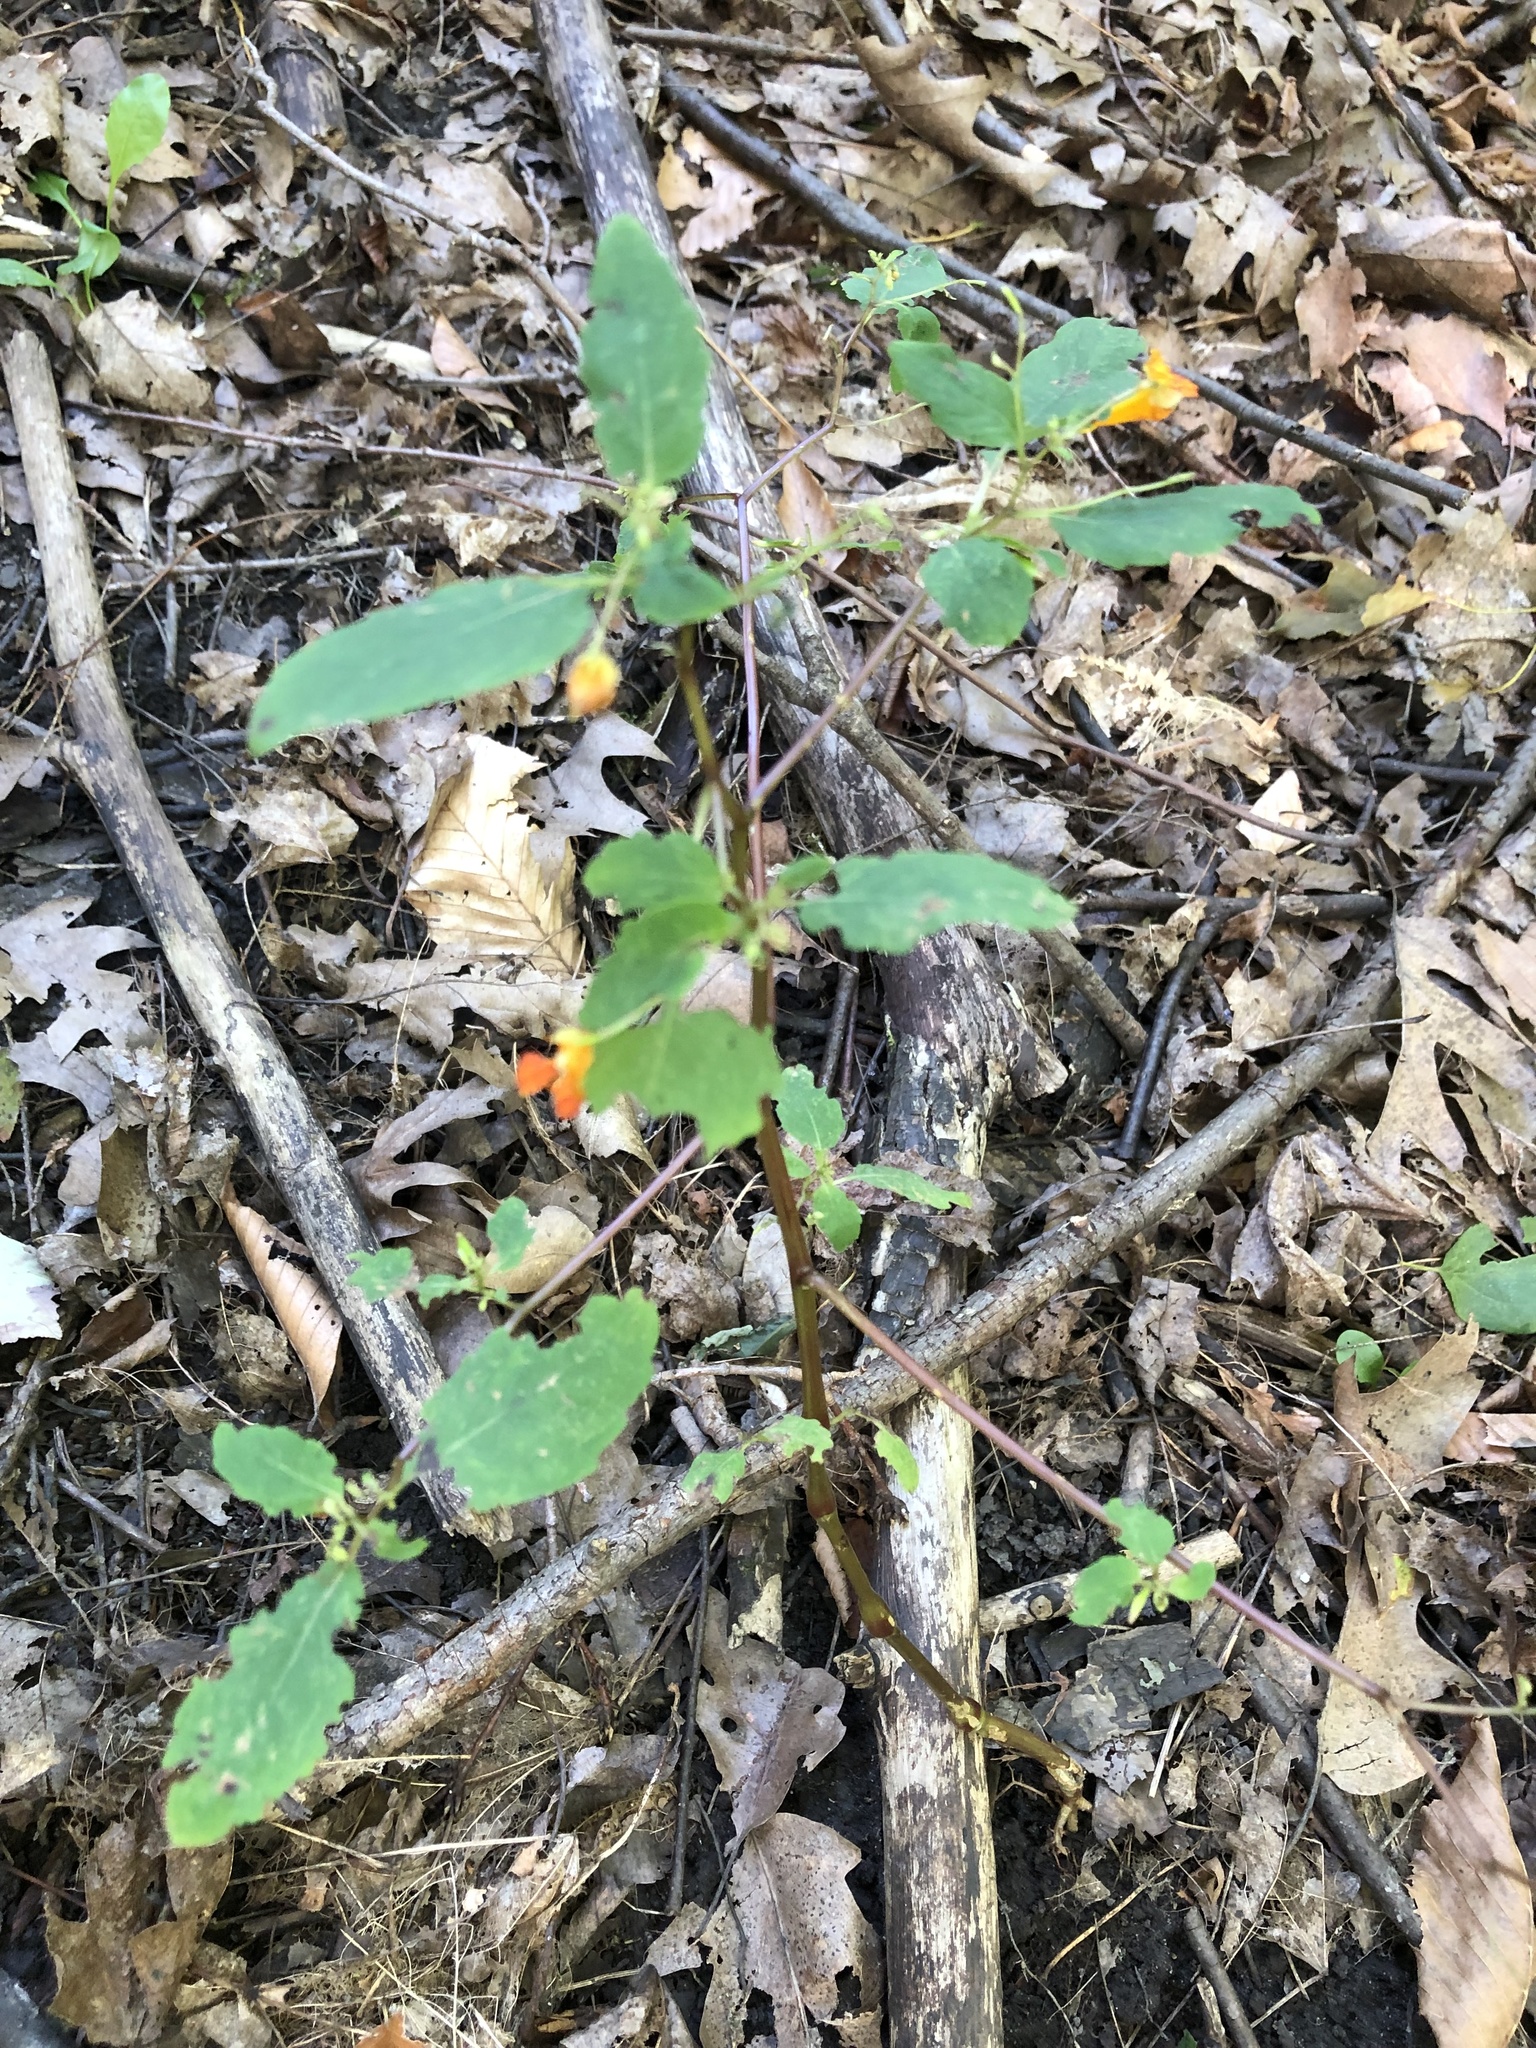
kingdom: Plantae
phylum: Tracheophyta
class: Magnoliopsida
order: Ericales
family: Balsaminaceae
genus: Impatiens
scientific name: Impatiens capensis
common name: Orange balsam
